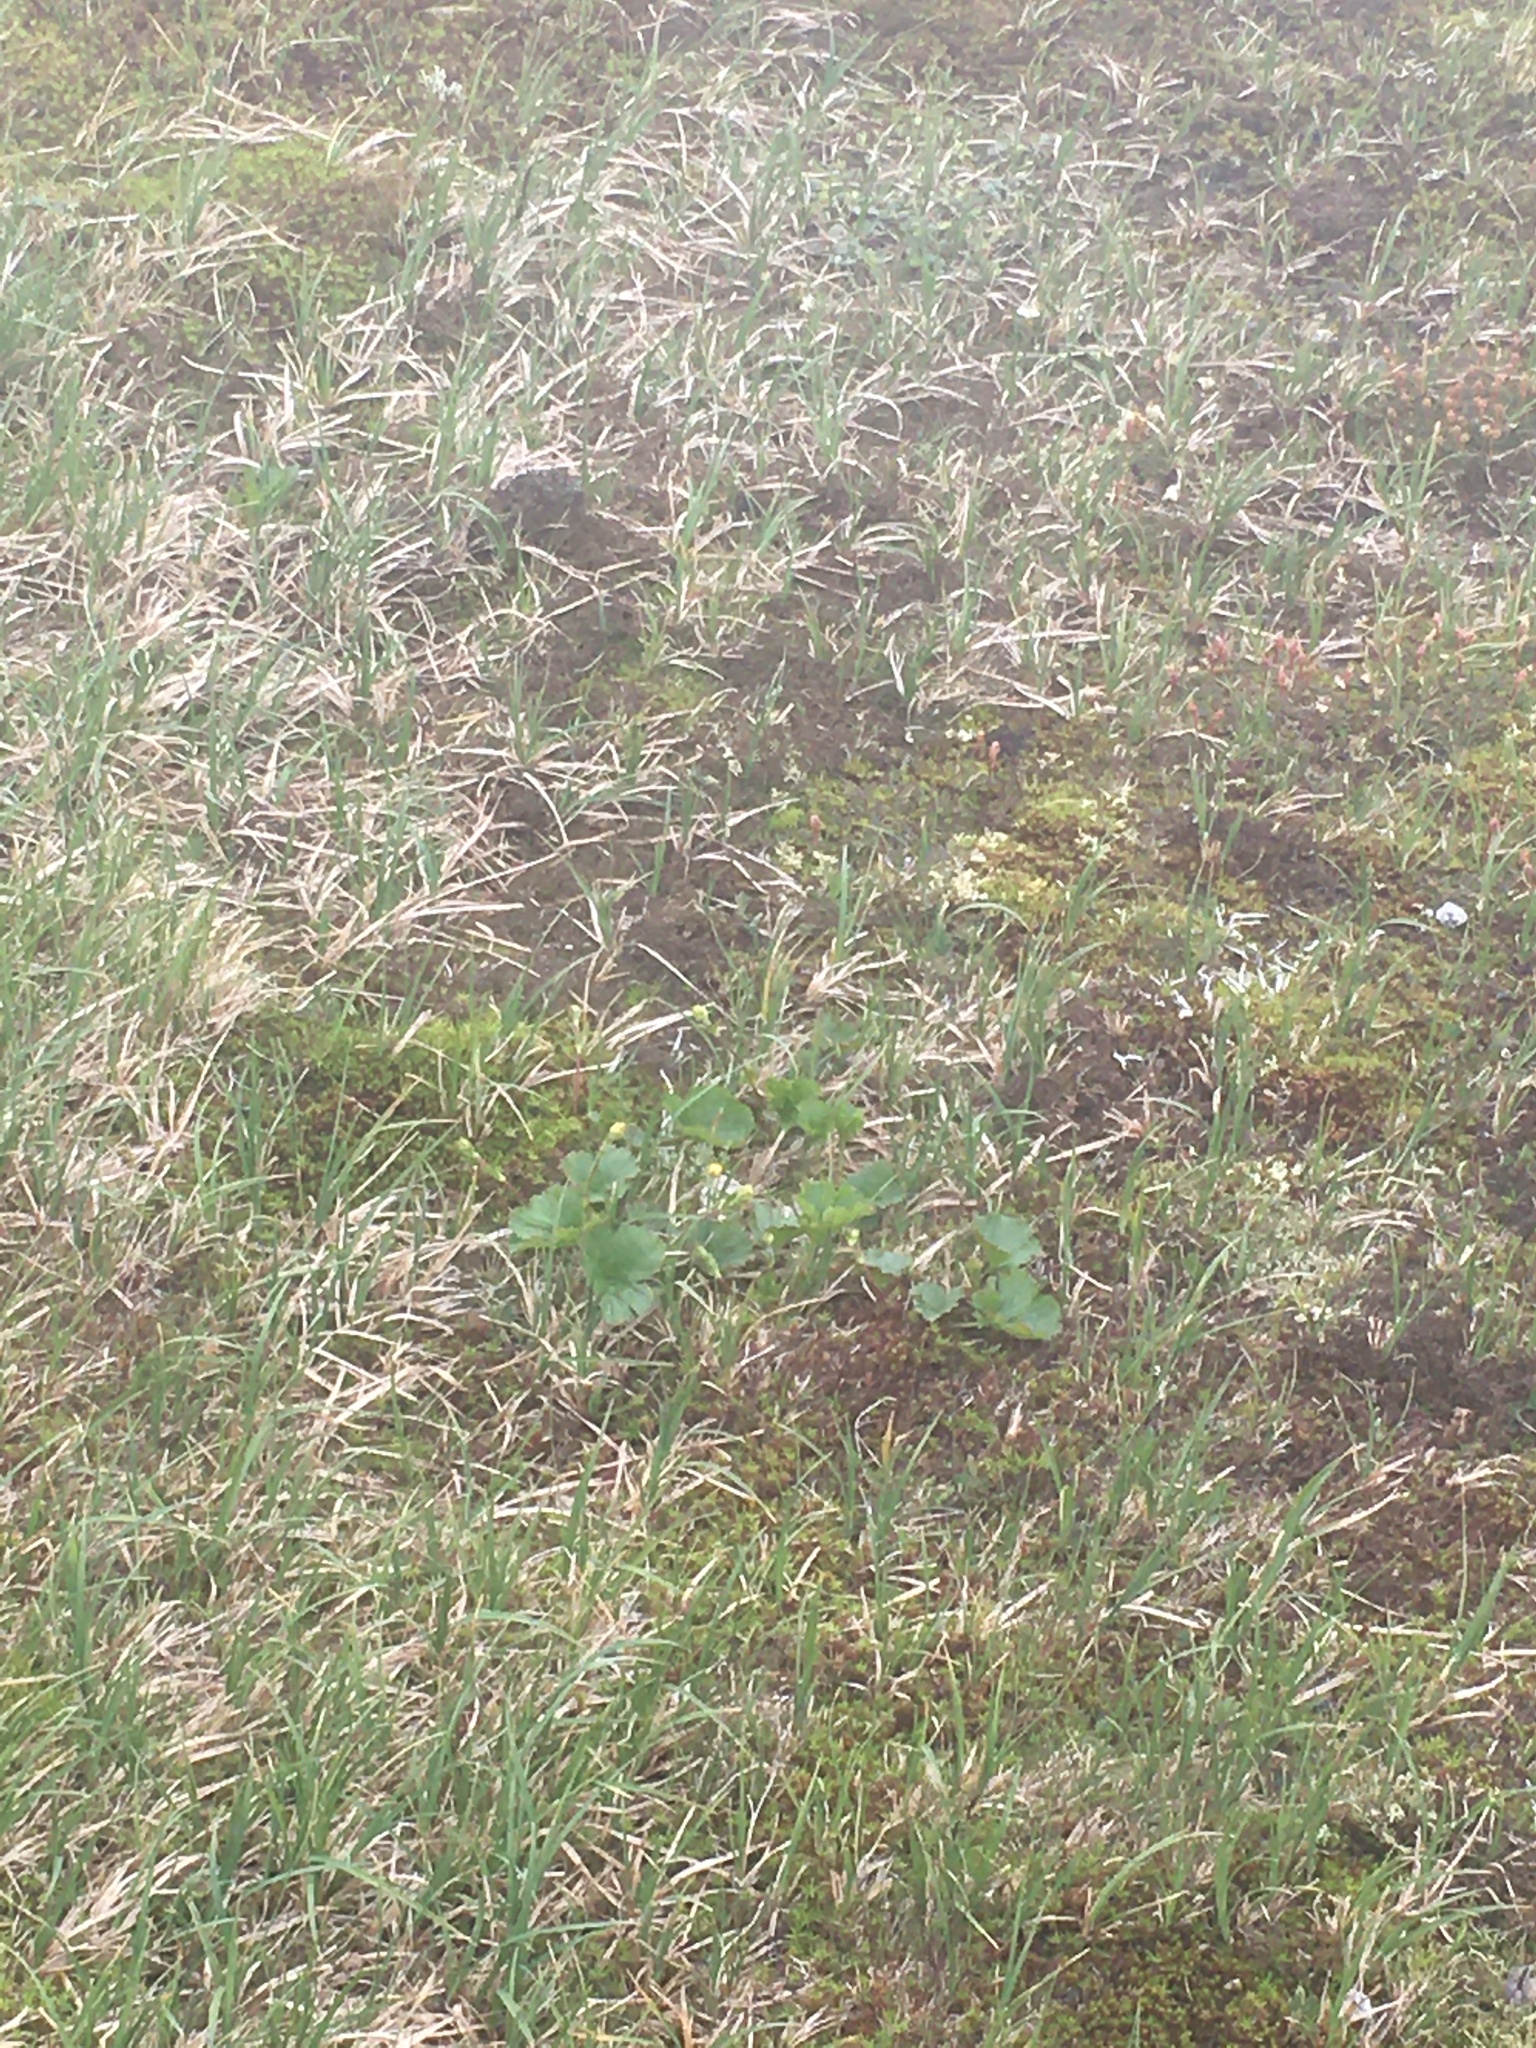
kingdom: Plantae
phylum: Tracheophyta
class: Magnoliopsida
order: Rosales
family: Rosaceae
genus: Geum
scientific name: Geum peckii
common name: Eastern mountain avens
